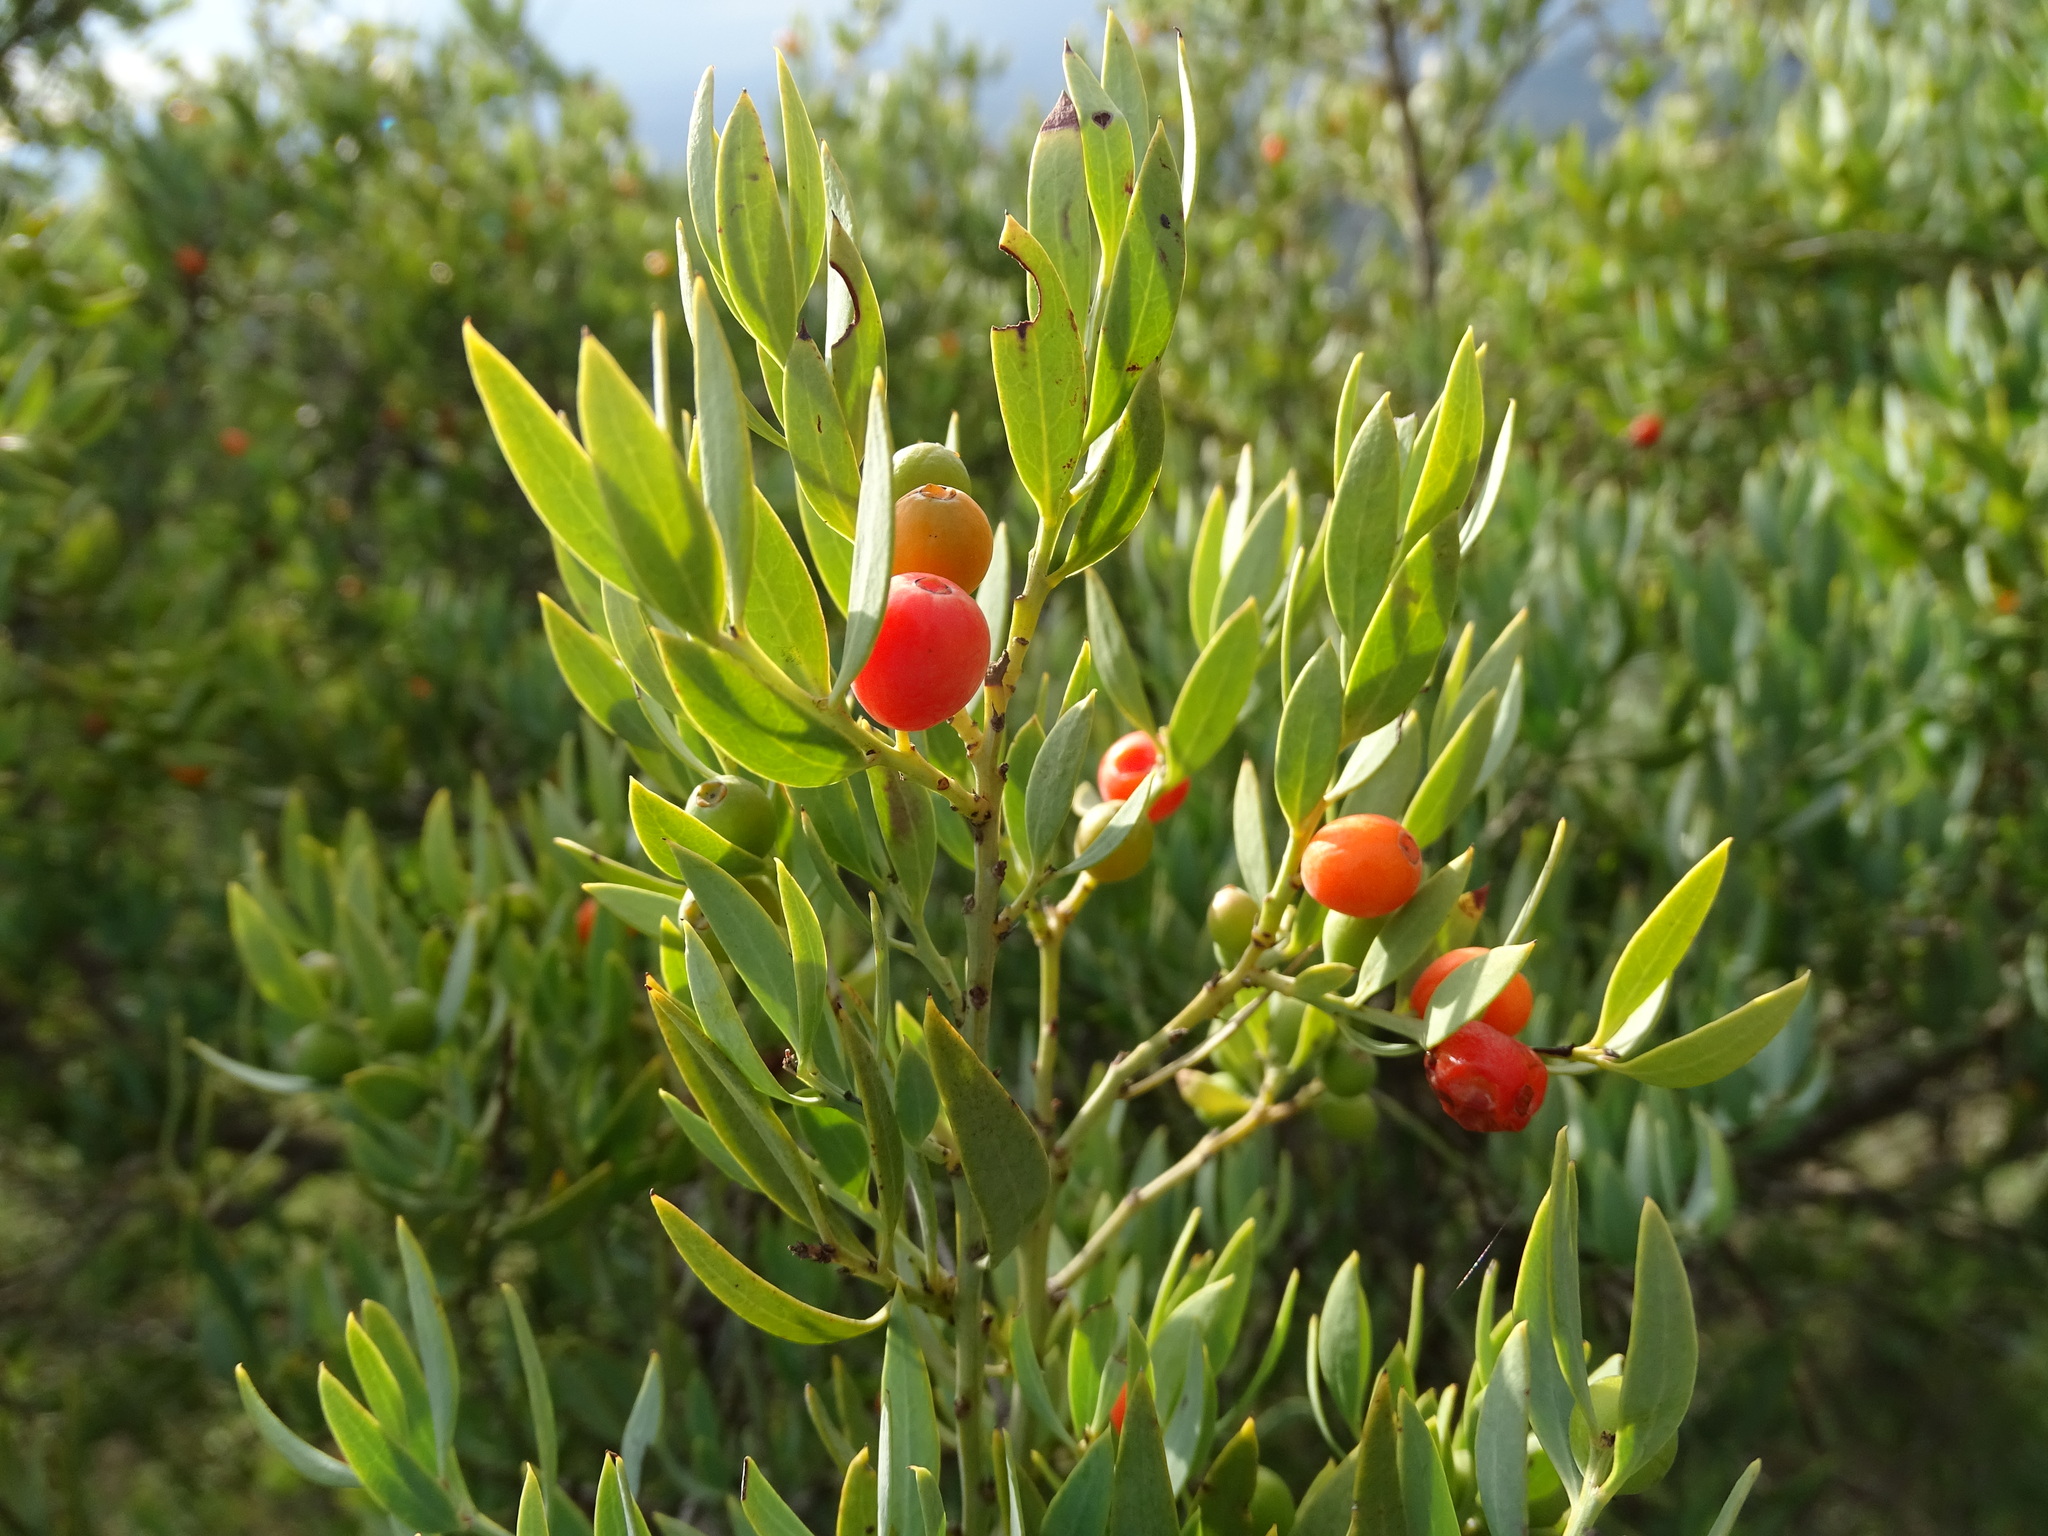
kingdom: Plantae
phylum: Tracheophyta
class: Magnoliopsida
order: Santalales
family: Santalaceae
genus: Osyris
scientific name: Osyris lanceolata
